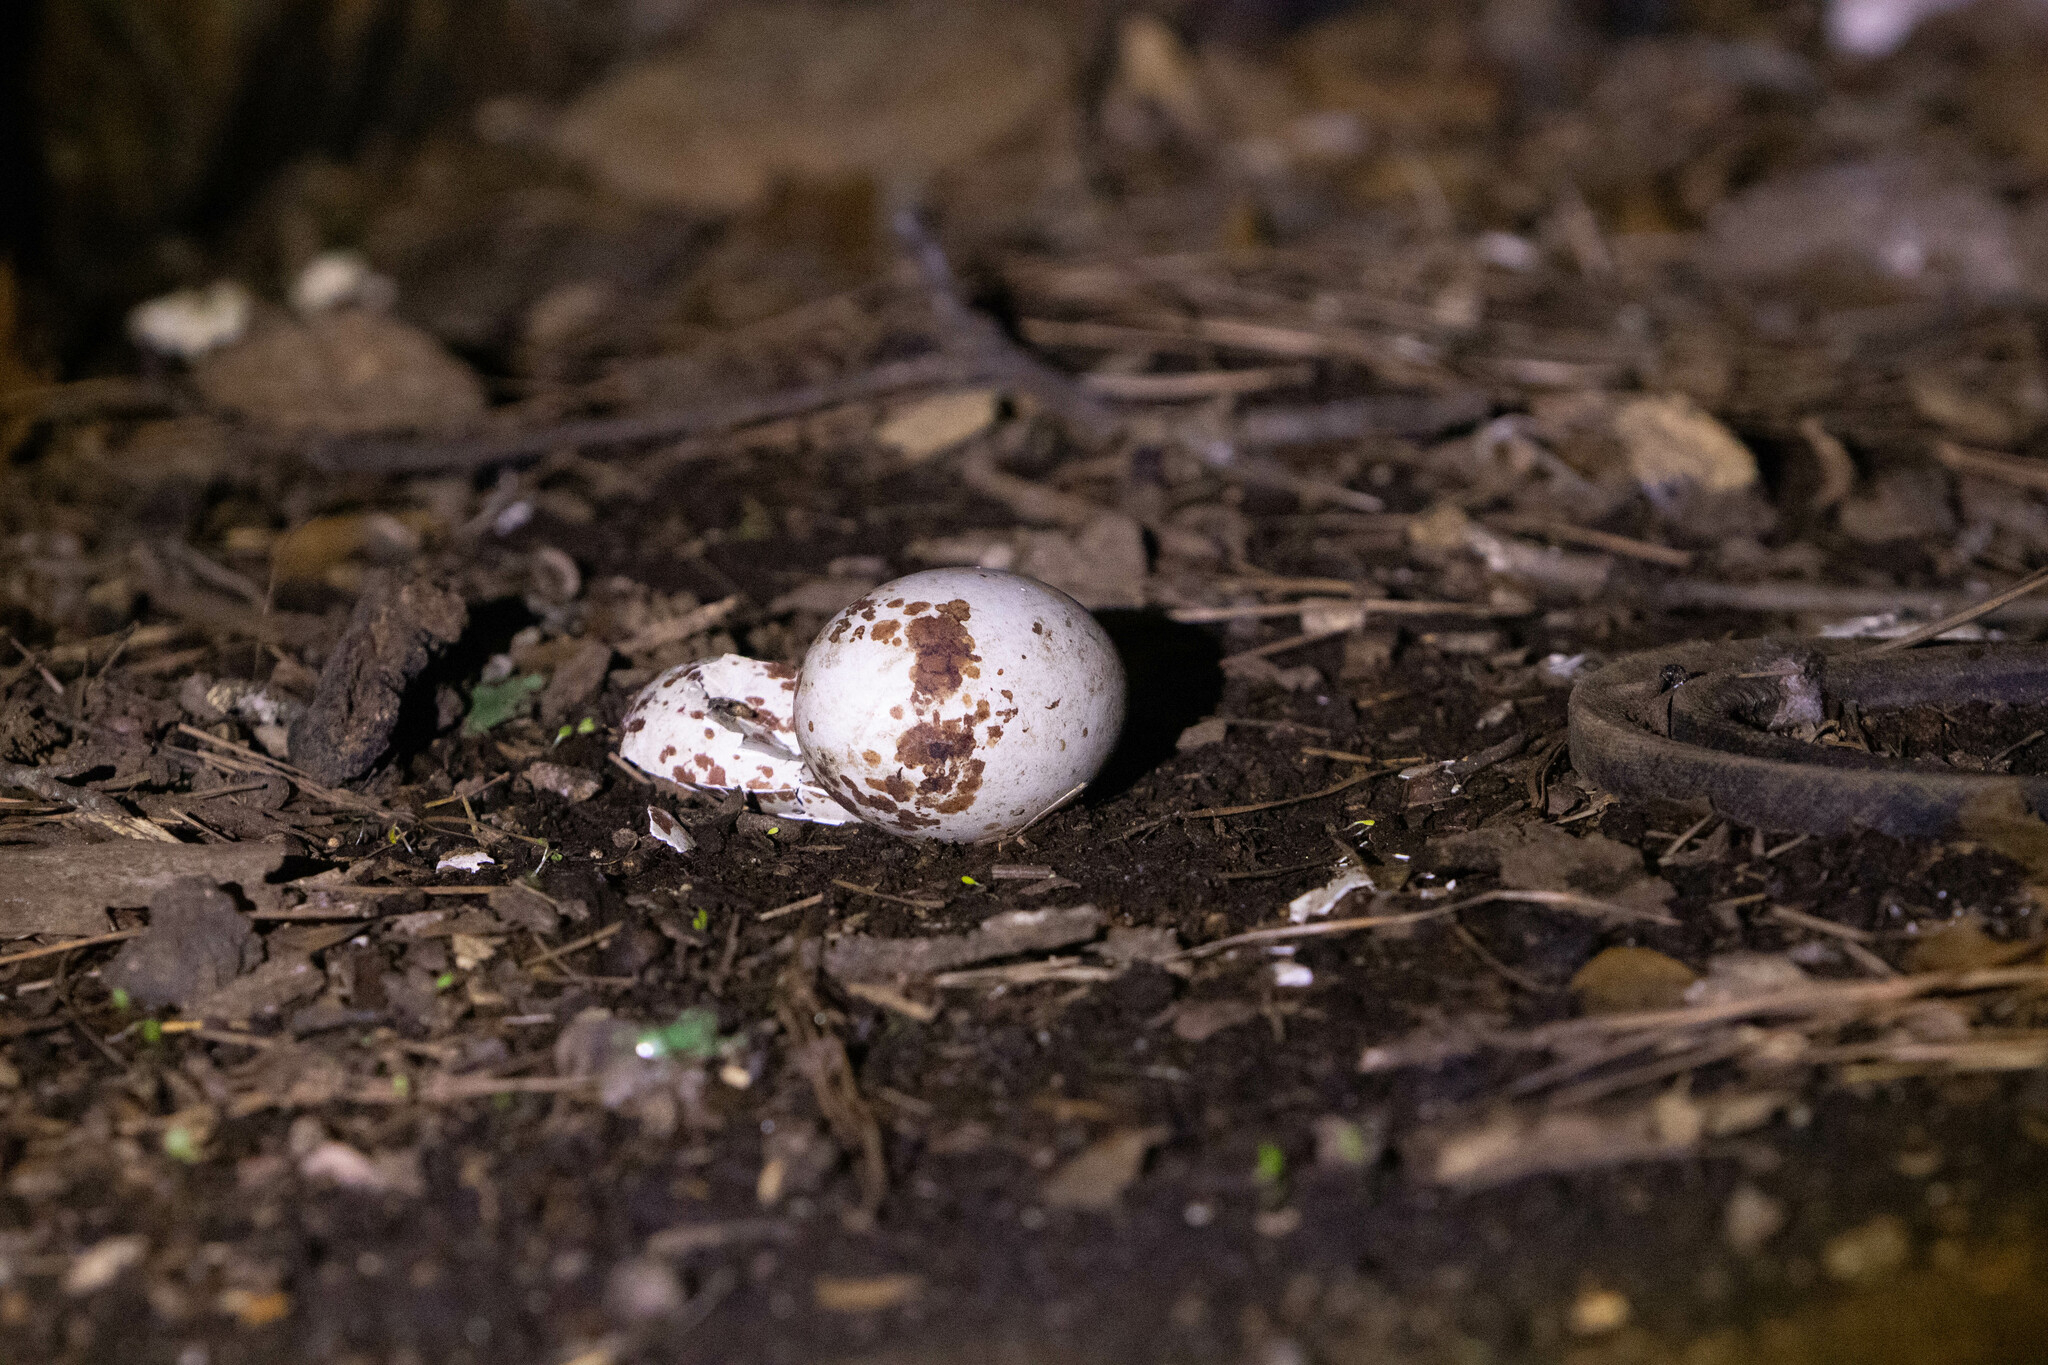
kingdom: Animalia
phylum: Chordata
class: Aves
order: Accipitriformes
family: Cathartidae
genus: Coragyps
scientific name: Coragyps atratus
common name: Black vulture
